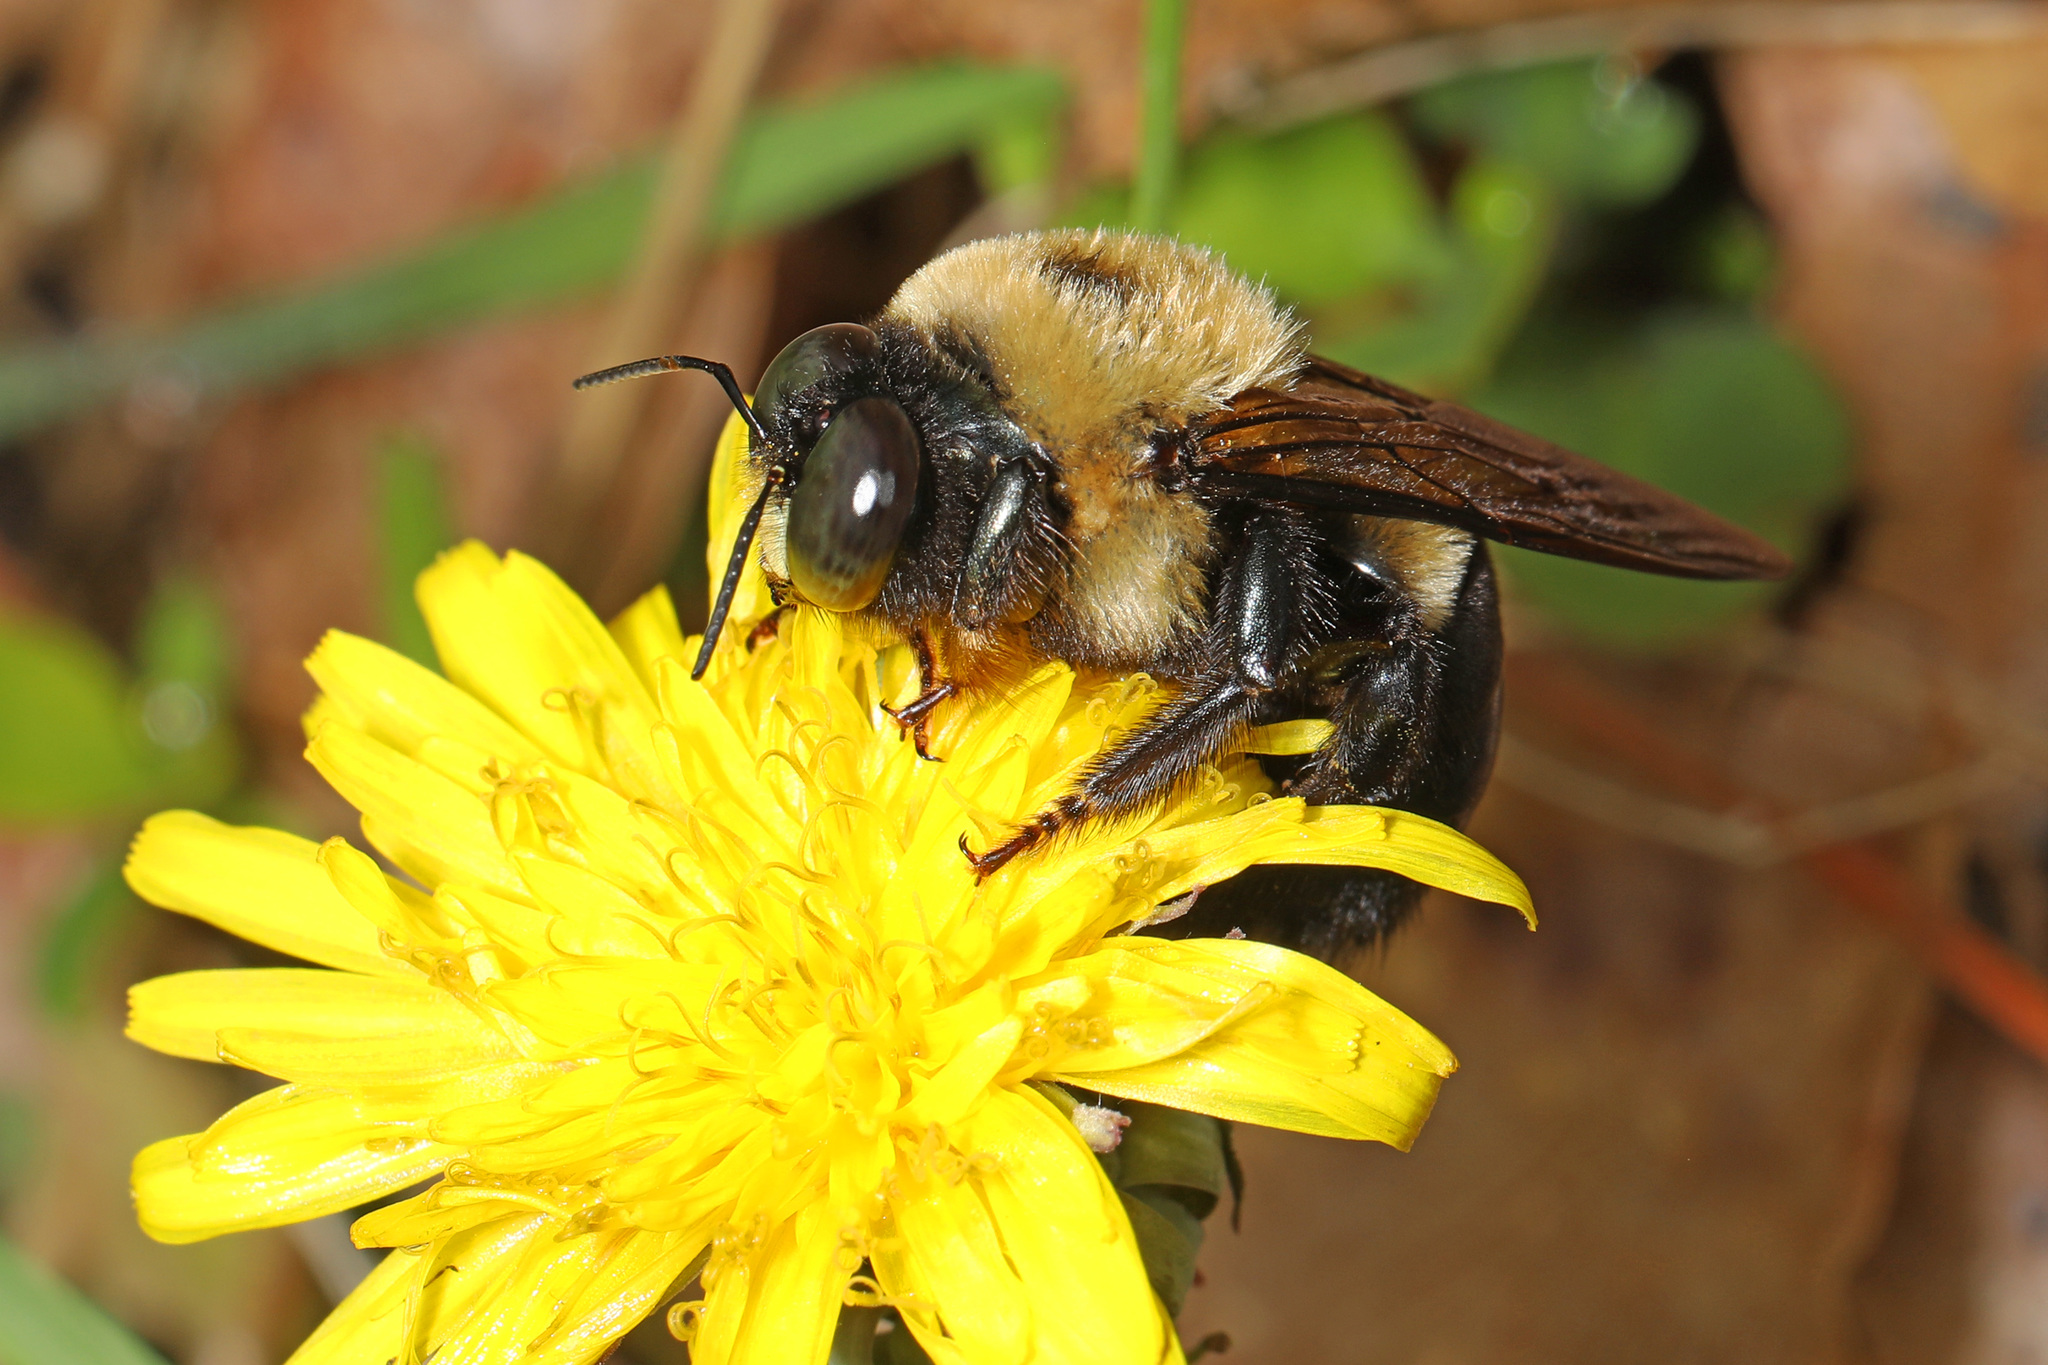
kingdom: Animalia
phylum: Arthropoda
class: Insecta
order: Hymenoptera
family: Apidae
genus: Xylocopa
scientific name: Xylocopa virginica
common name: Carpenter bee
